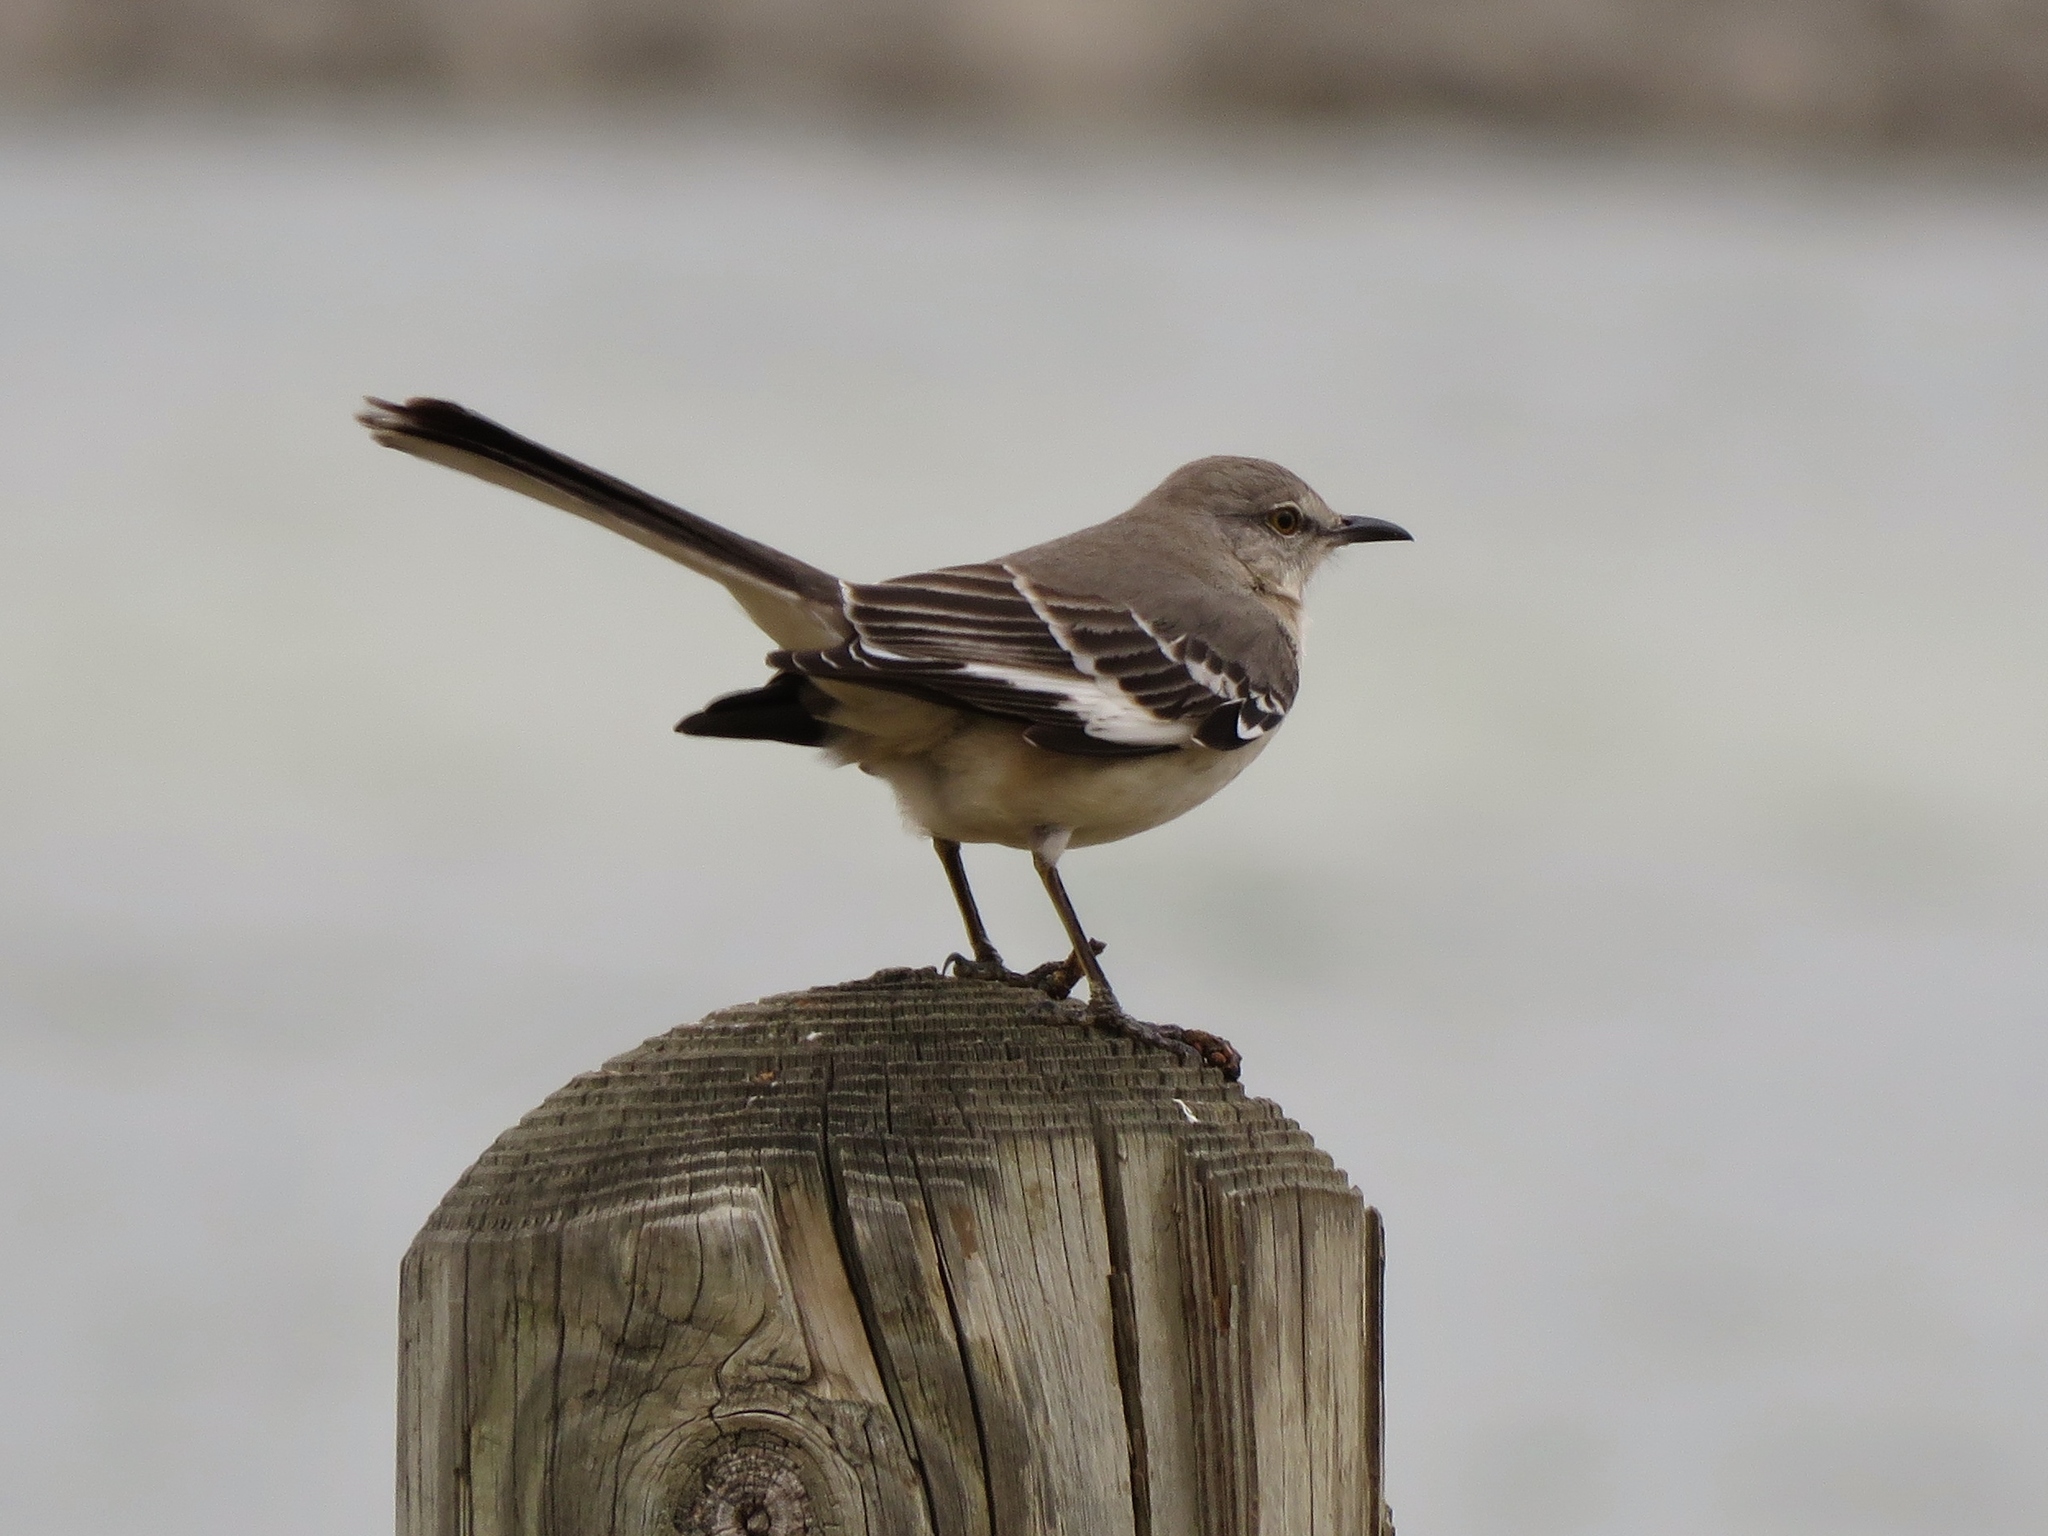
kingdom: Animalia
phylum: Chordata
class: Aves
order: Passeriformes
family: Mimidae
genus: Mimus
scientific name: Mimus polyglottos
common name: Northern mockingbird
